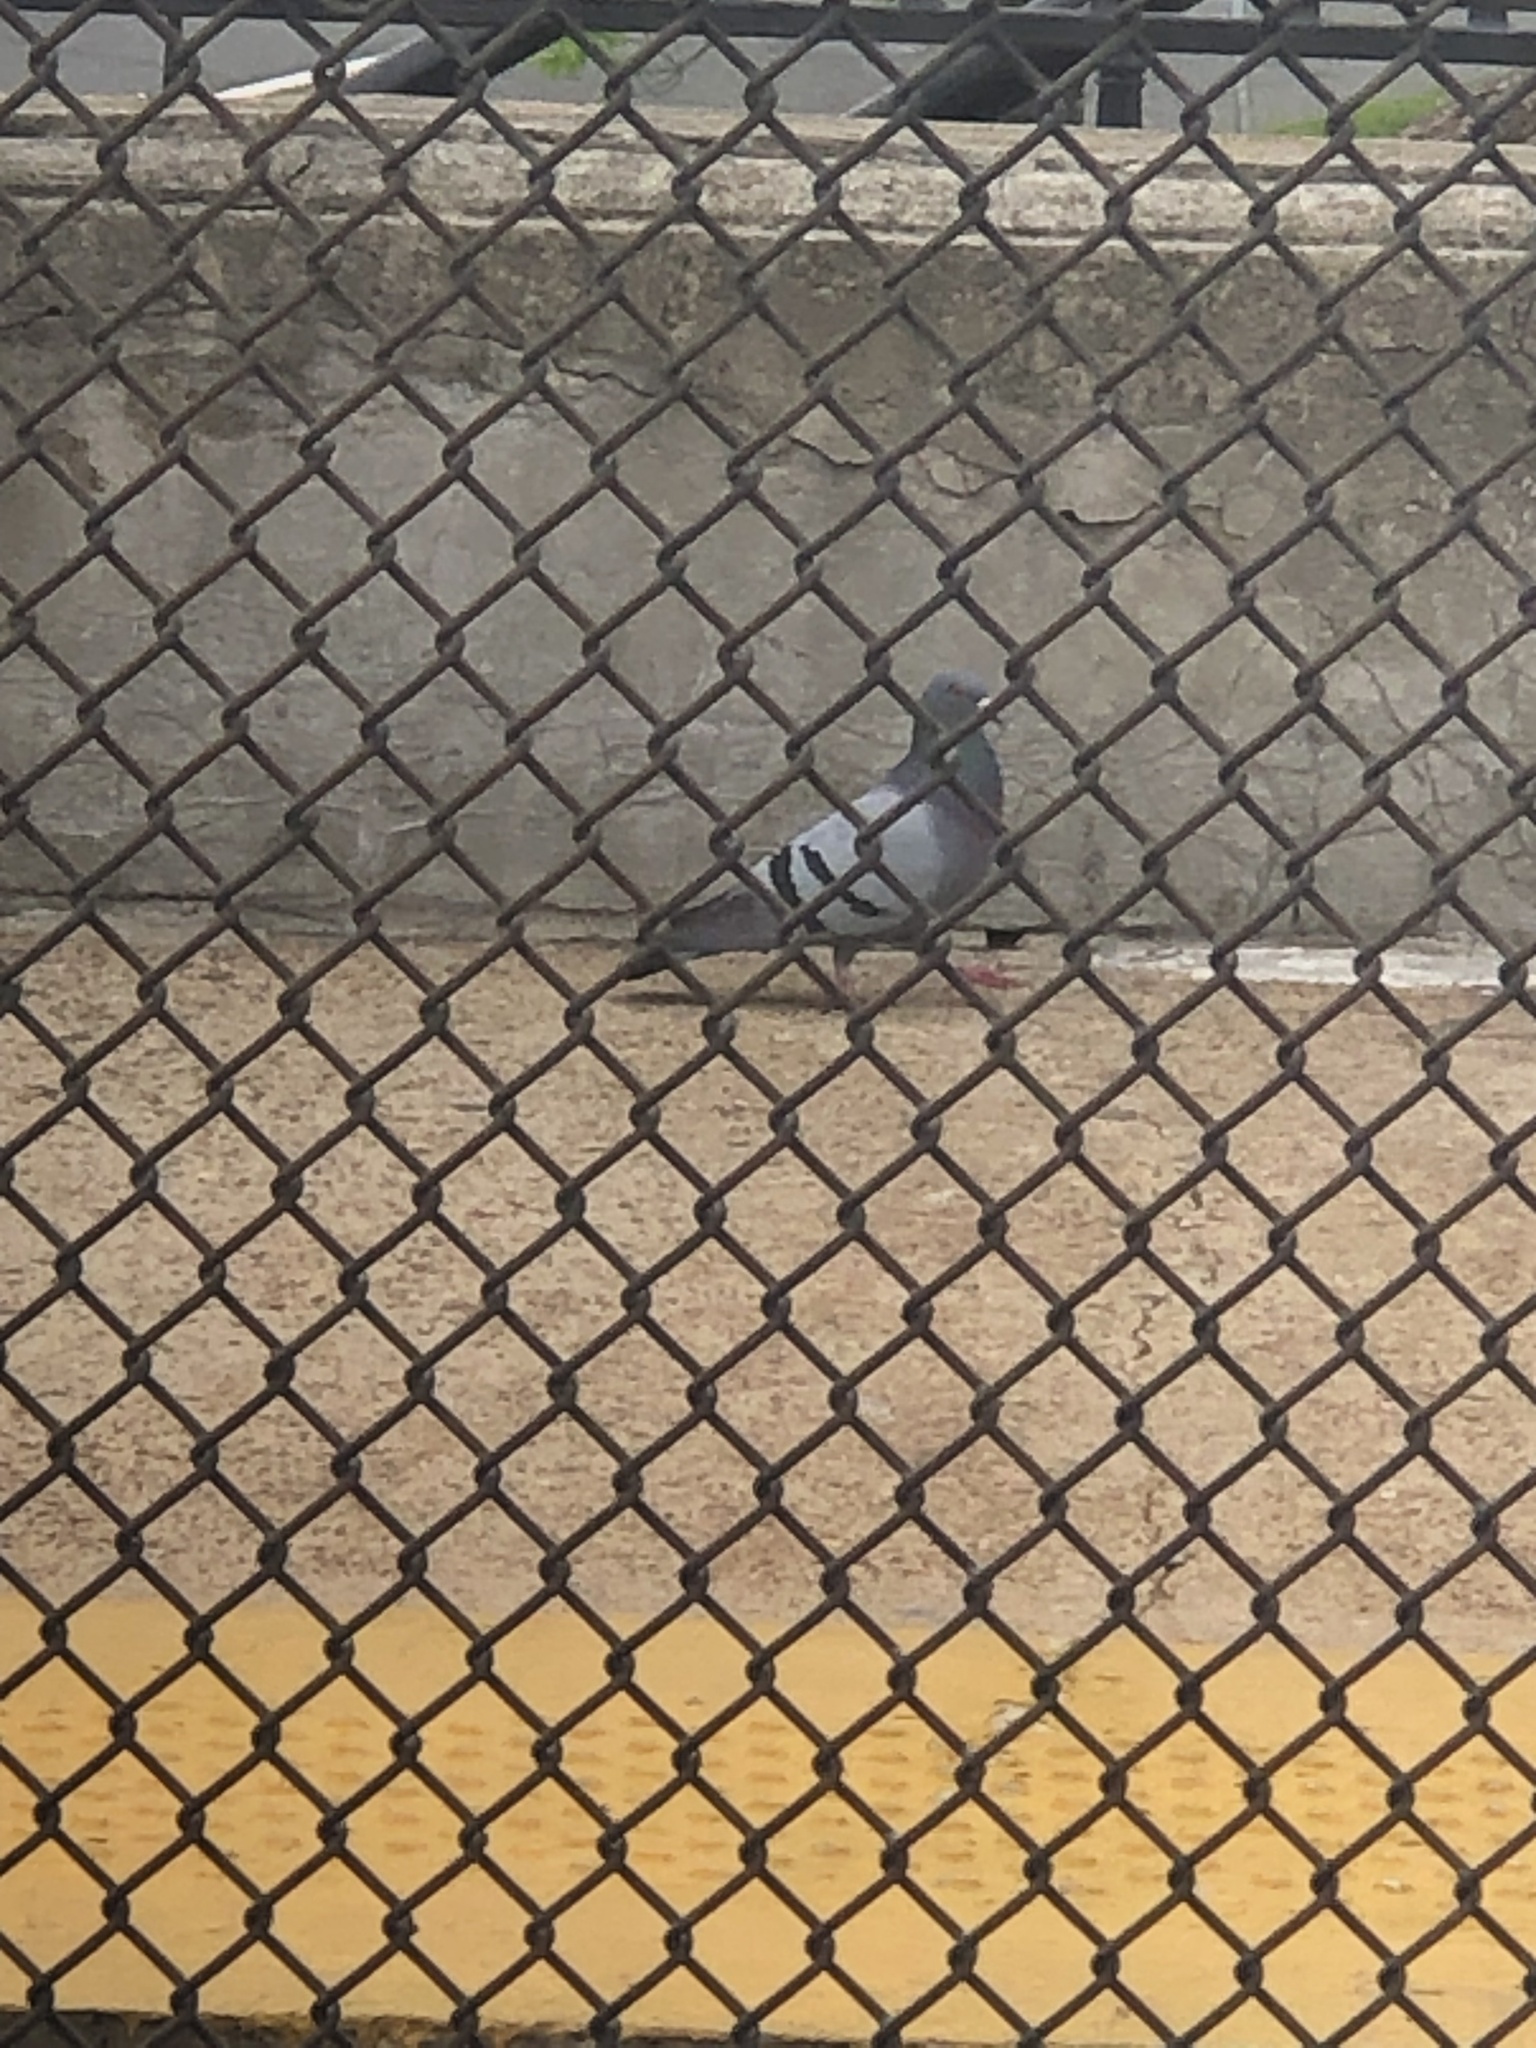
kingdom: Animalia
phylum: Chordata
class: Aves
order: Columbiformes
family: Columbidae
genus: Columba
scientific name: Columba livia
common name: Rock pigeon
